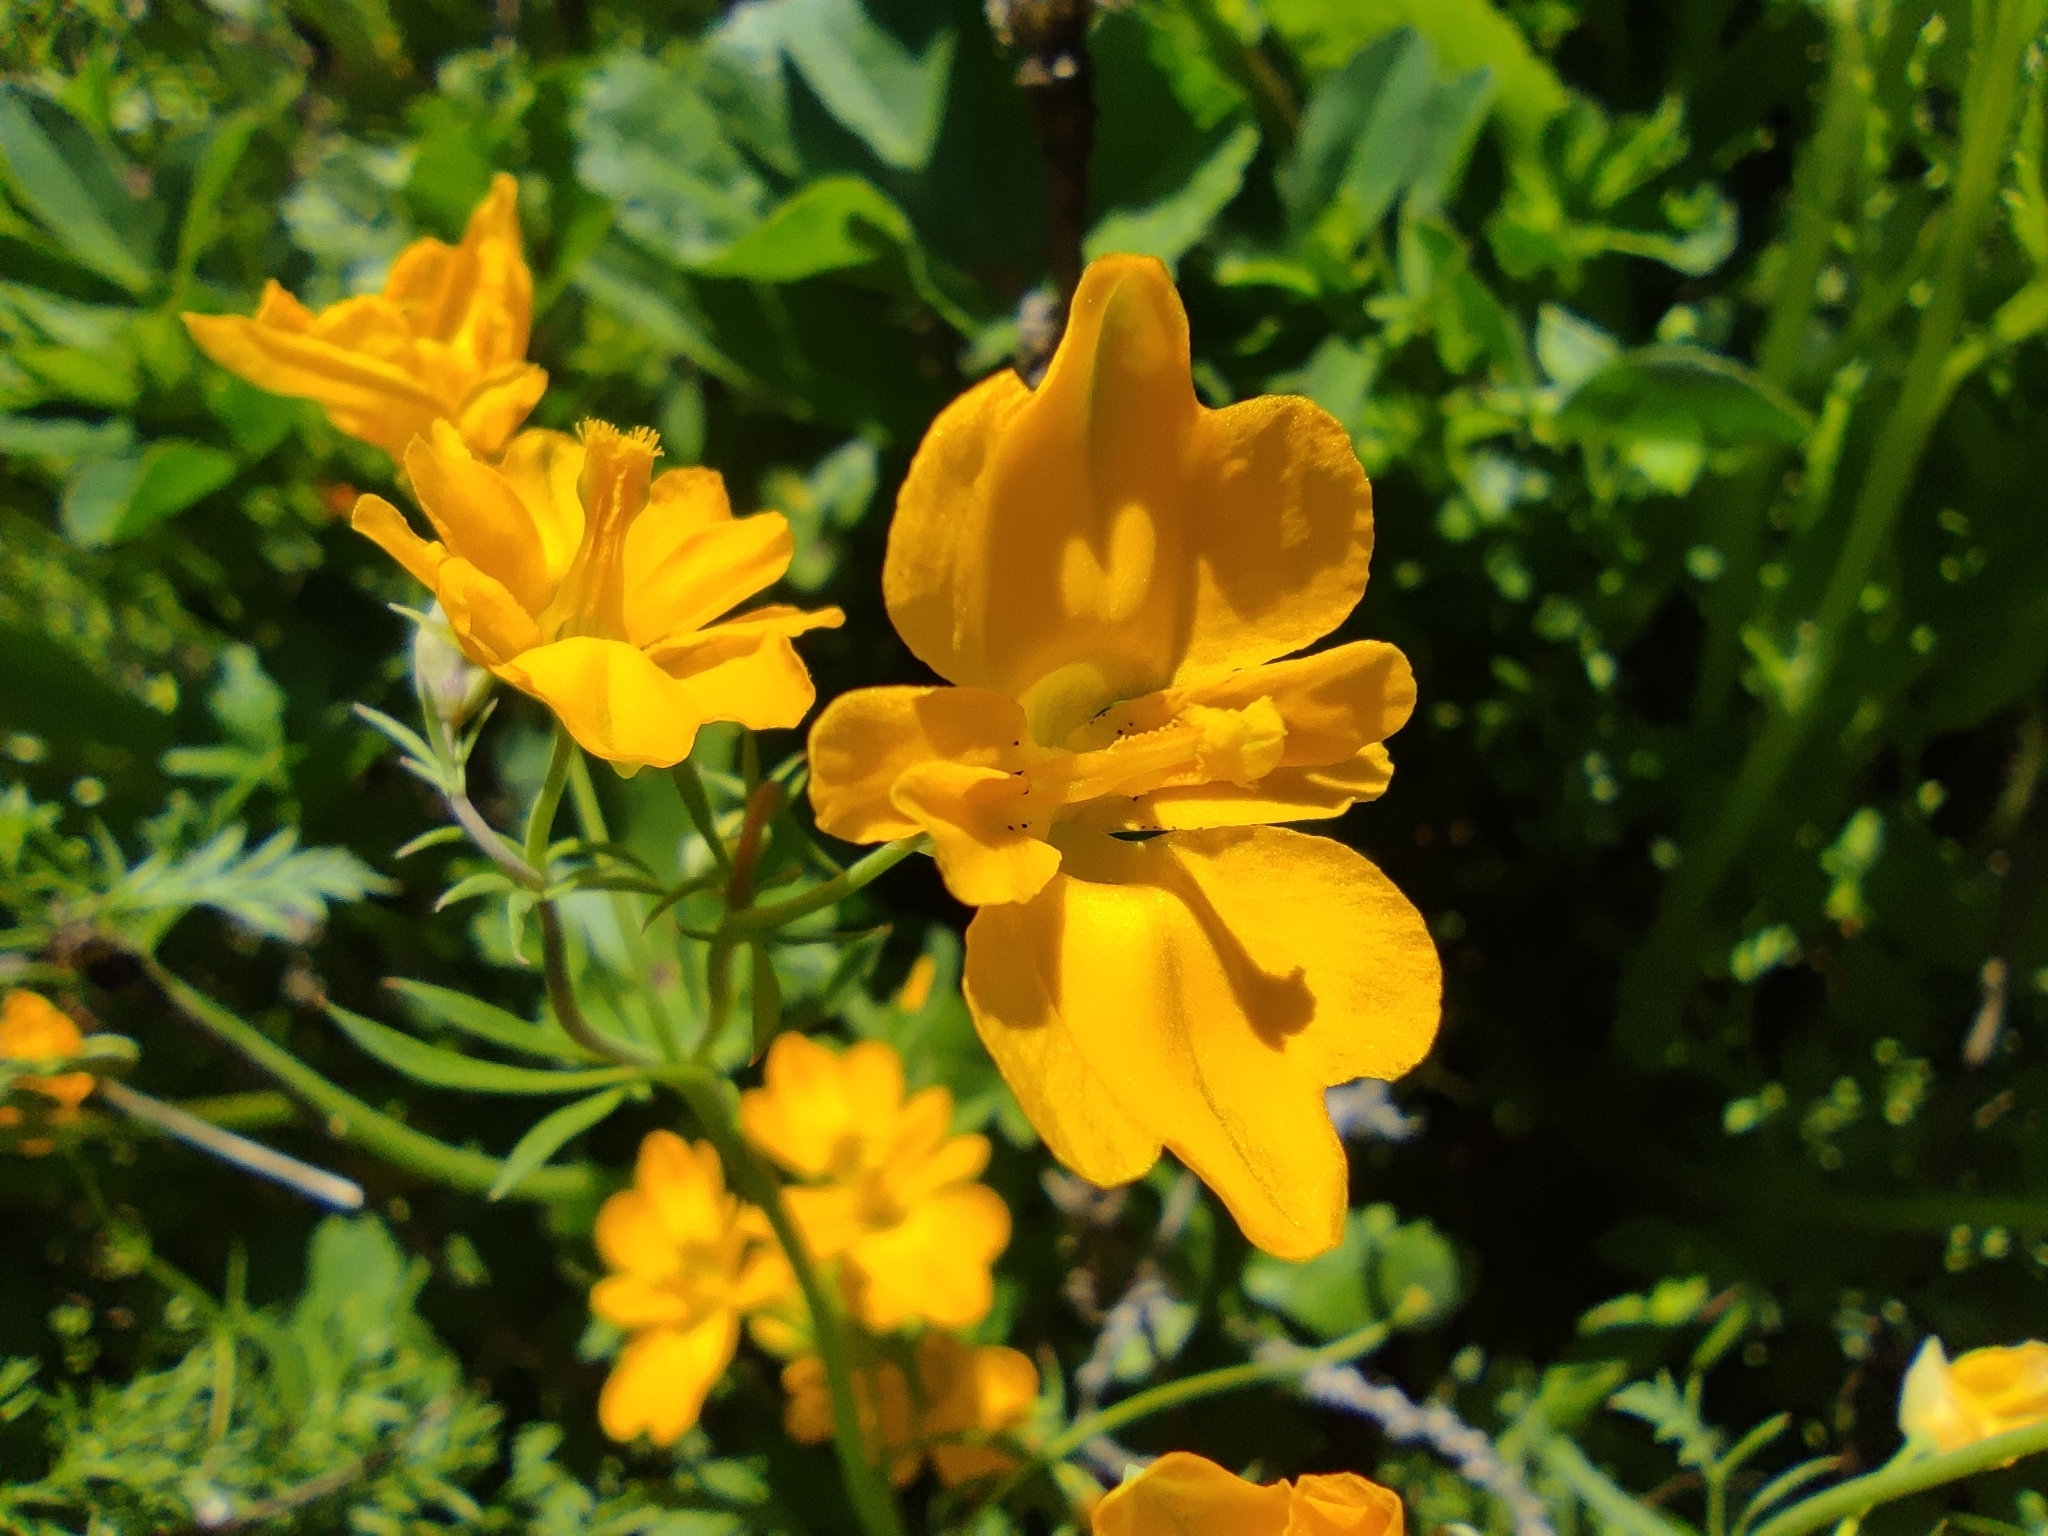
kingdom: Plantae
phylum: Tracheophyta
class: Magnoliopsida
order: Ranunculales
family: Papaveraceae
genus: Hypecoum
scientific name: Hypecoum imberbe
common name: Sicklefruit hypecoum
